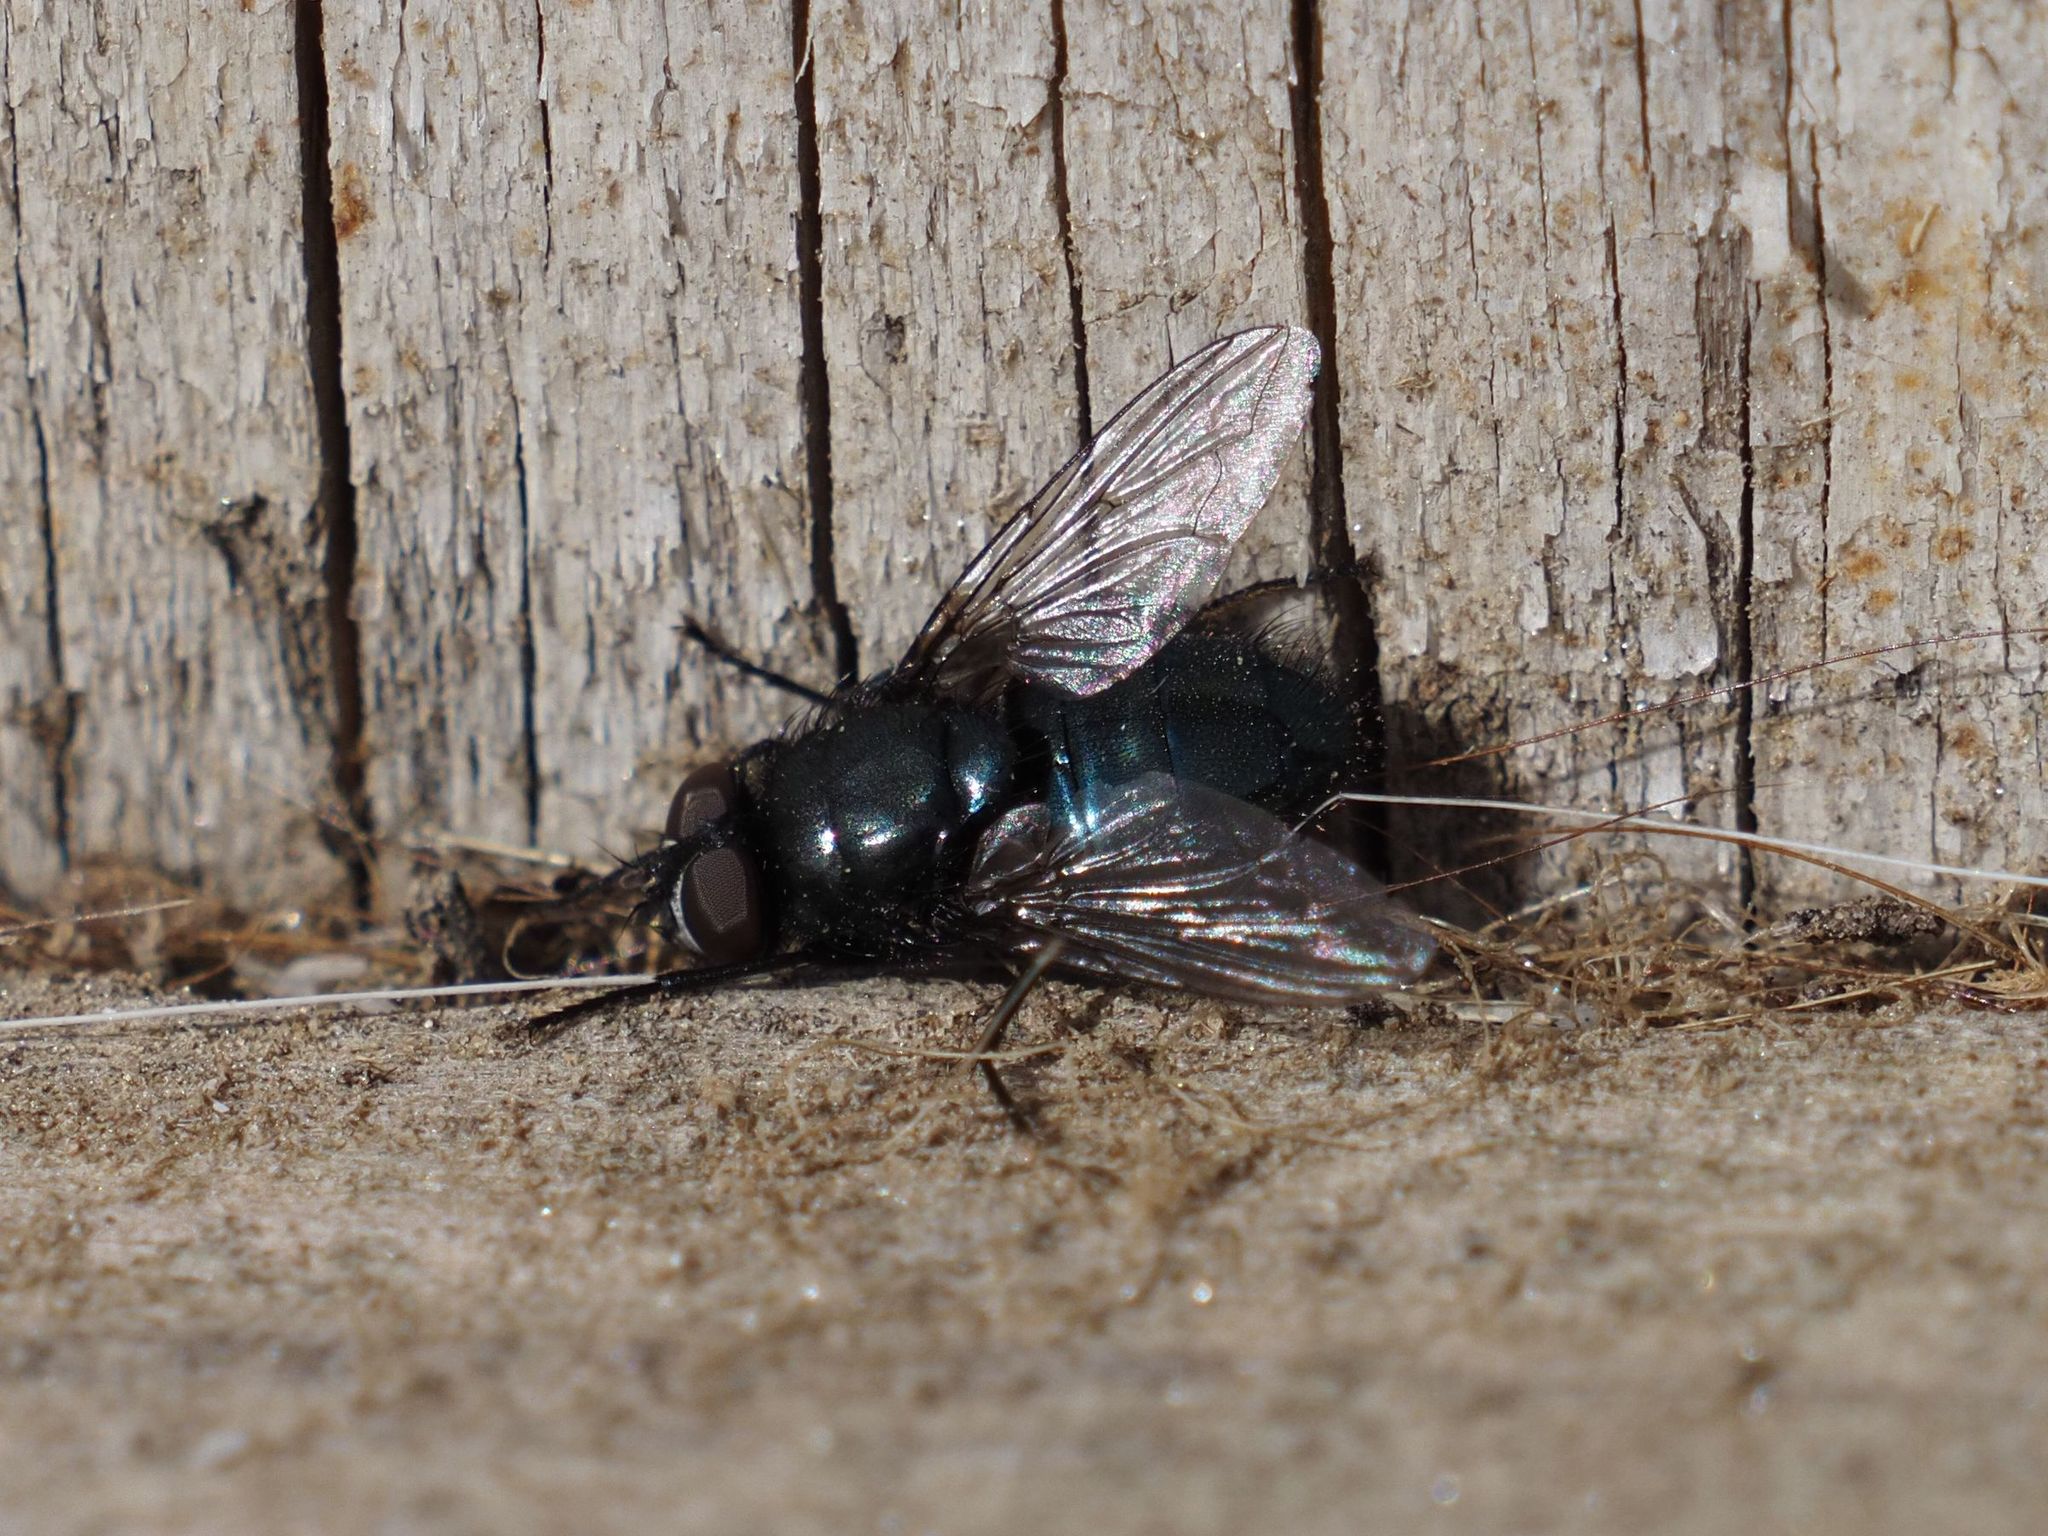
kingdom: Animalia
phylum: Arthropoda
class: Insecta
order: Diptera
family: Calliphoridae
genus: Protophormia
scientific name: Protophormia terraenovae
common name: Blackbottle
